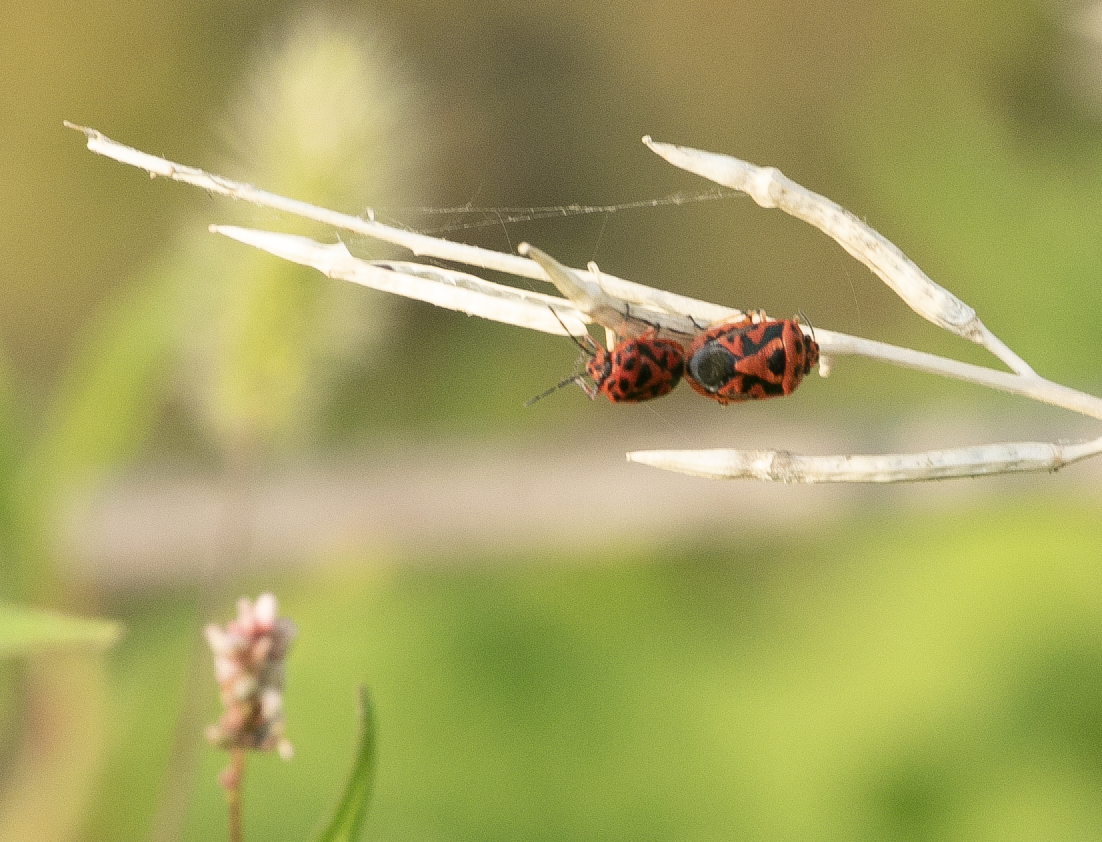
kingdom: Animalia
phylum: Arthropoda
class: Insecta
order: Hemiptera
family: Pentatomidae
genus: Eurydema
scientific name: Eurydema ornata
